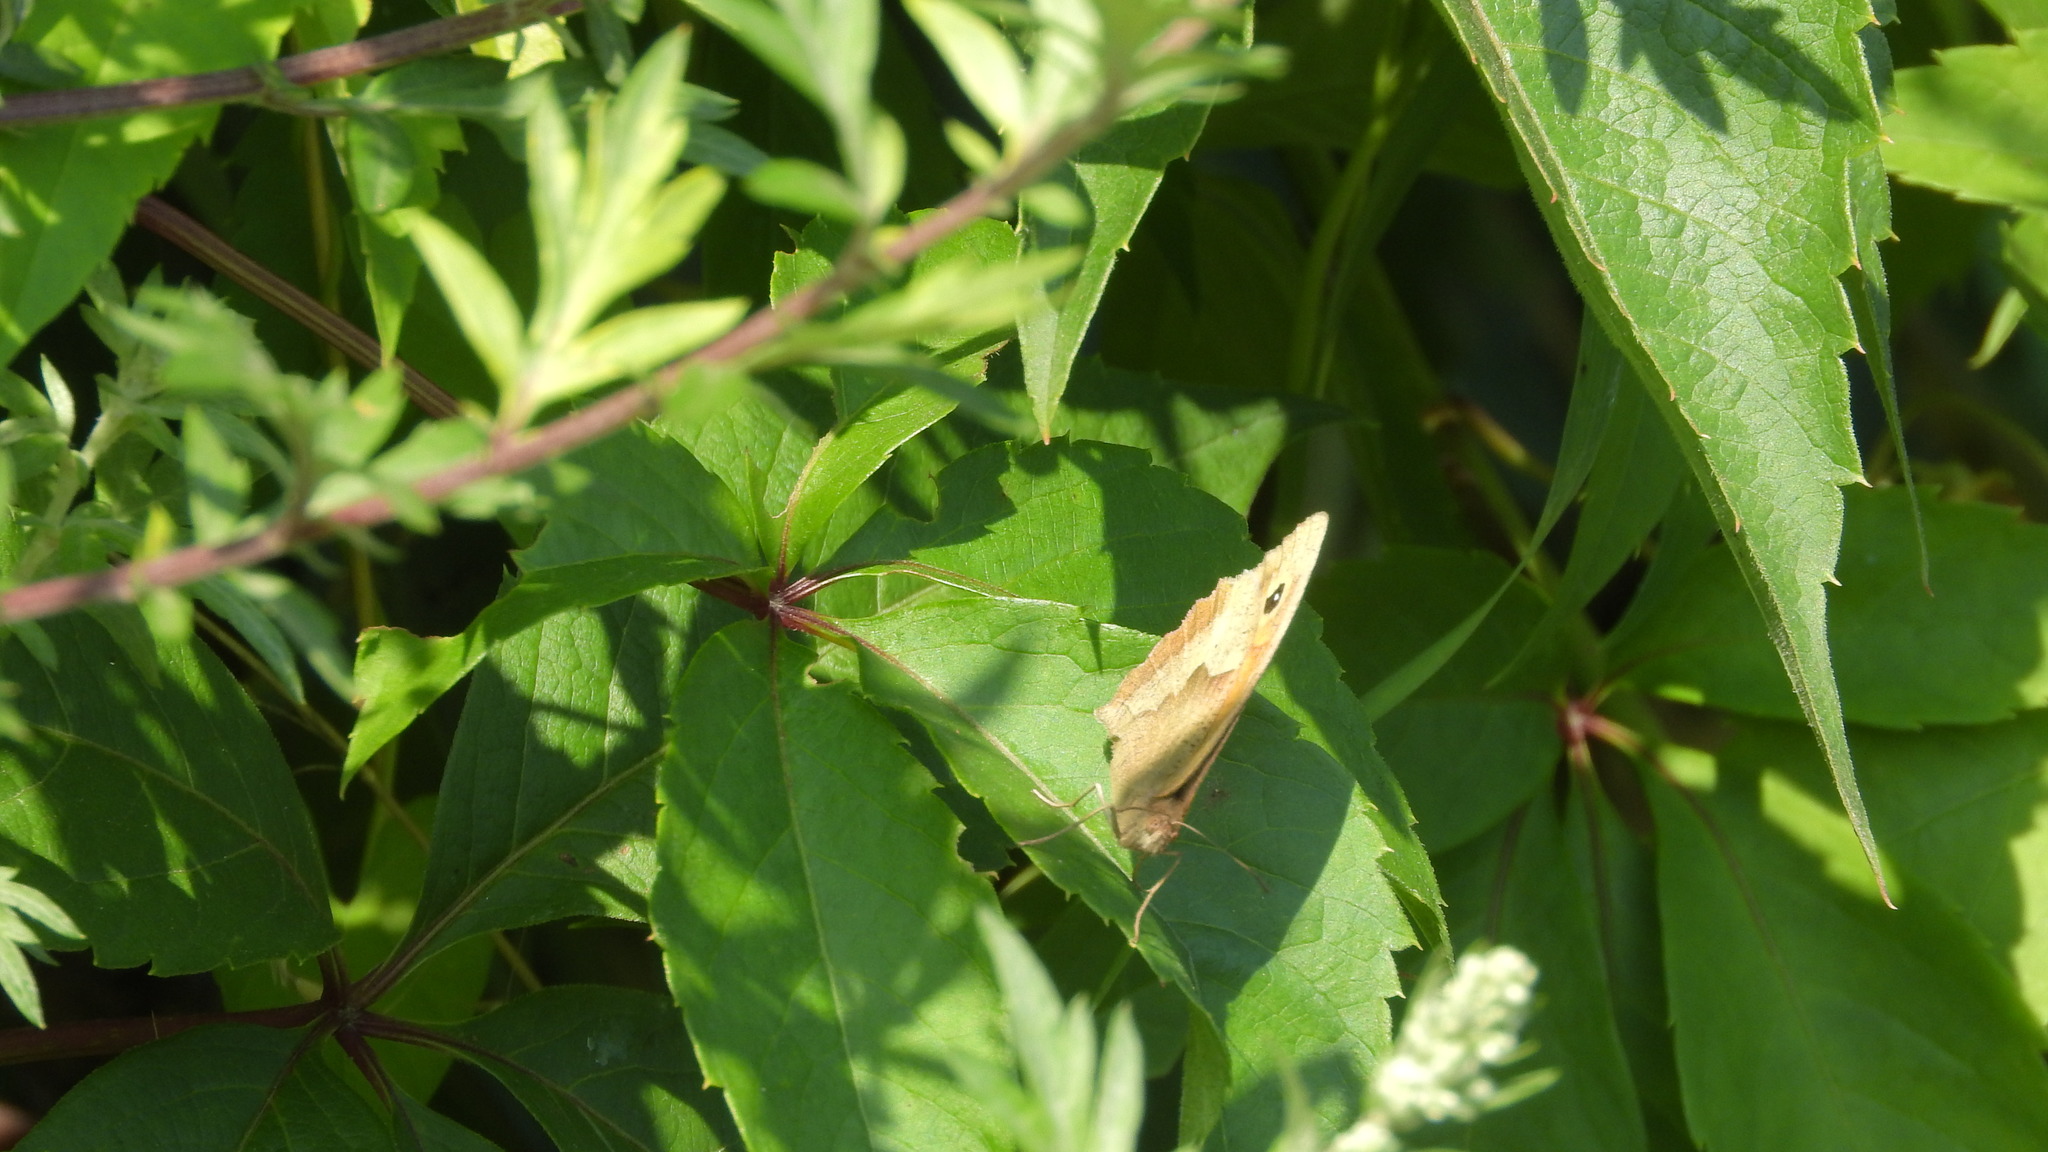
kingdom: Animalia
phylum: Arthropoda
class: Insecta
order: Lepidoptera
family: Nymphalidae
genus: Maniola
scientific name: Maniola jurtina
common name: Meadow brown
